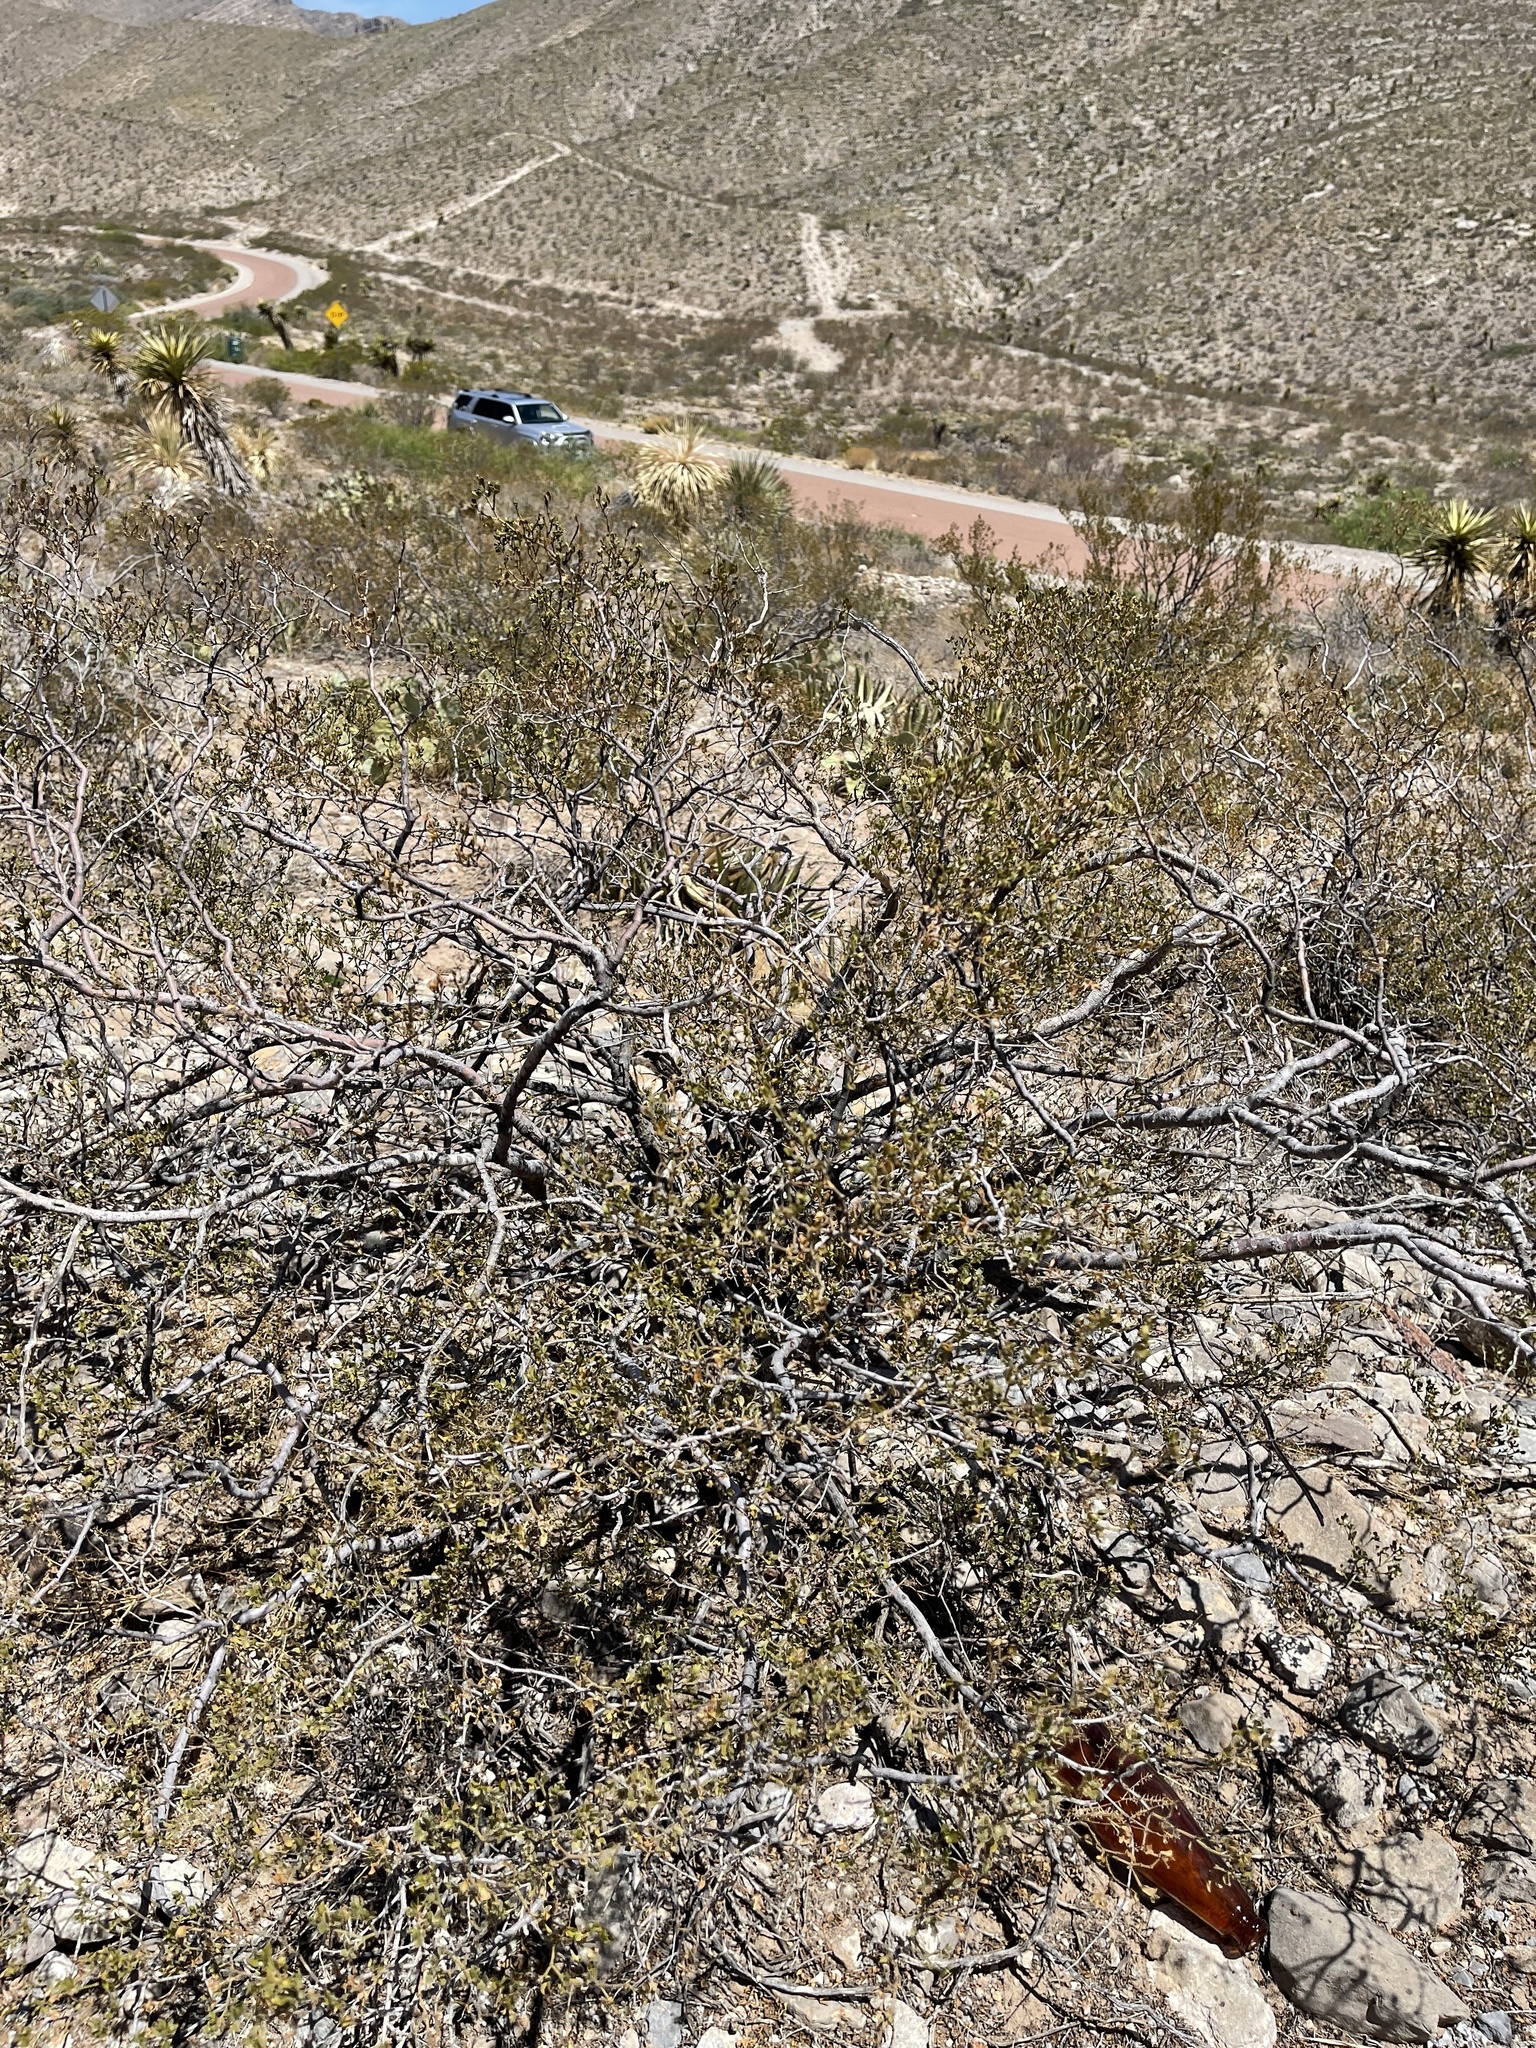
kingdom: Plantae
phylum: Tracheophyta
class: Magnoliopsida
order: Zygophyllales
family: Zygophyllaceae
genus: Larrea
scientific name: Larrea tridentata
